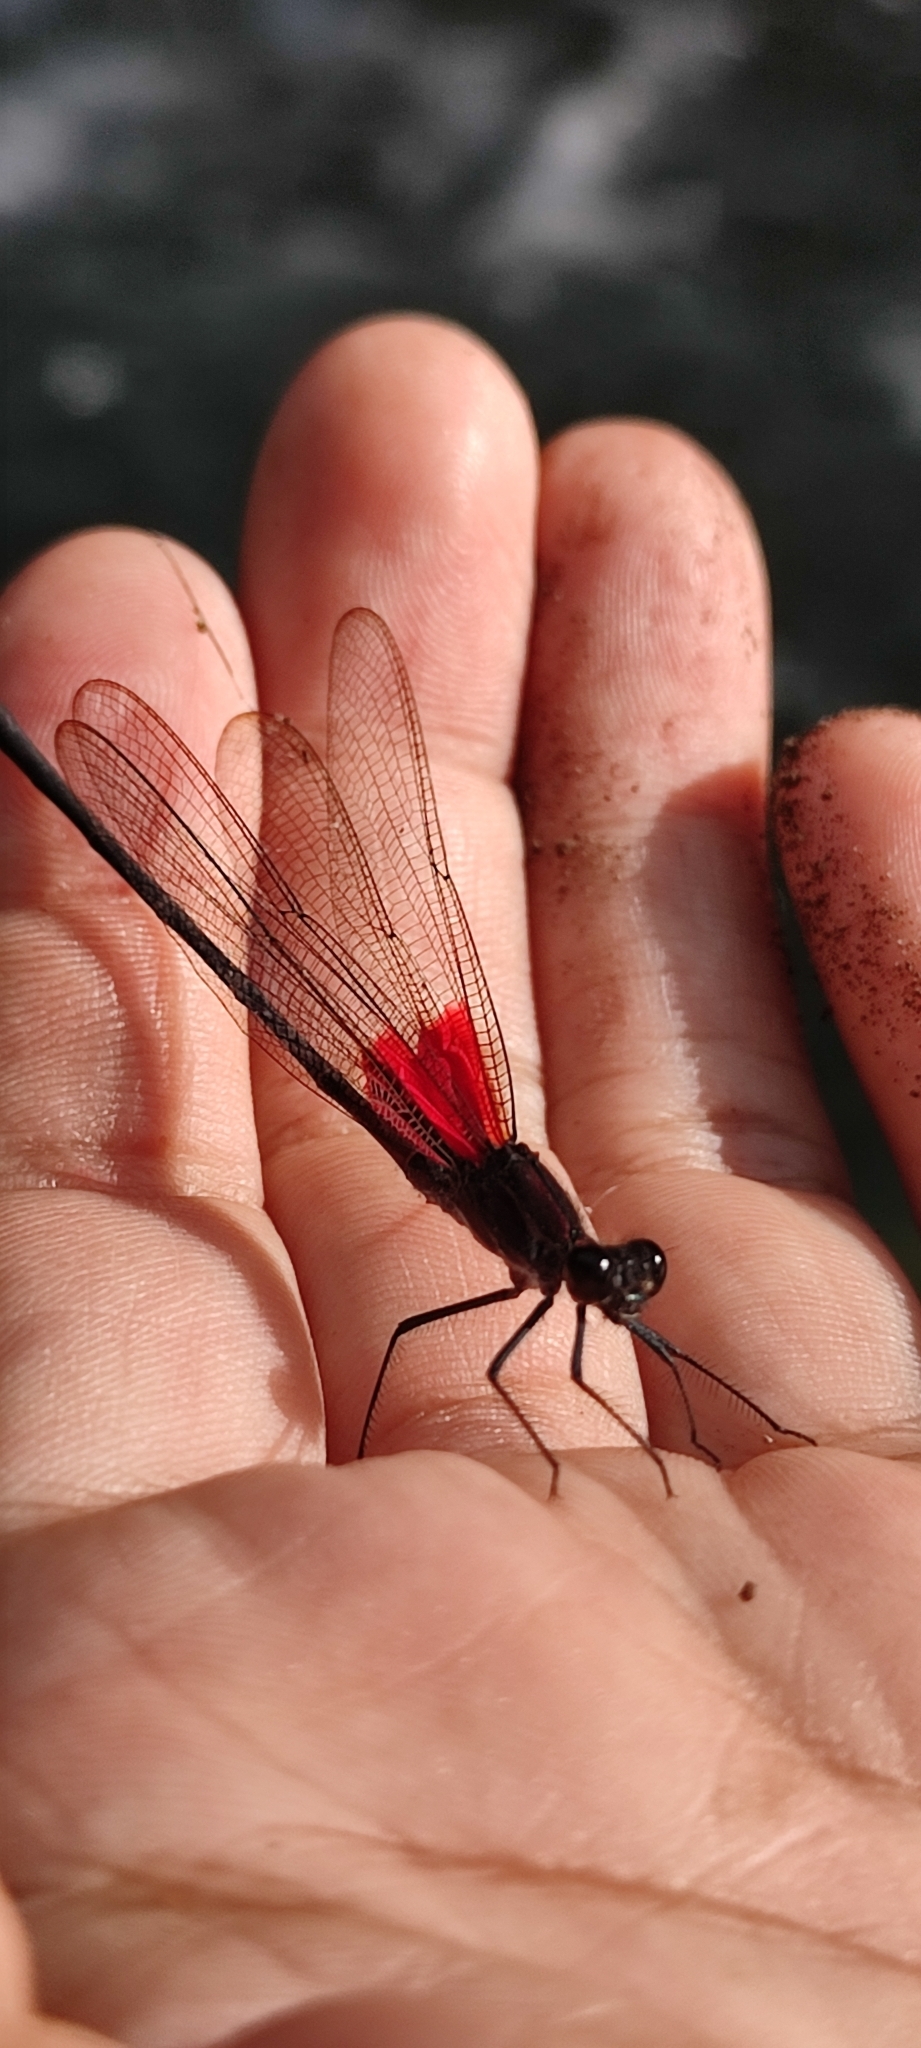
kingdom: Animalia
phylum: Arthropoda
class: Insecta
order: Odonata
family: Calopterygidae
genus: Hetaerina
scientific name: Hetaerina vulnerata
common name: Canyon rubyspot
